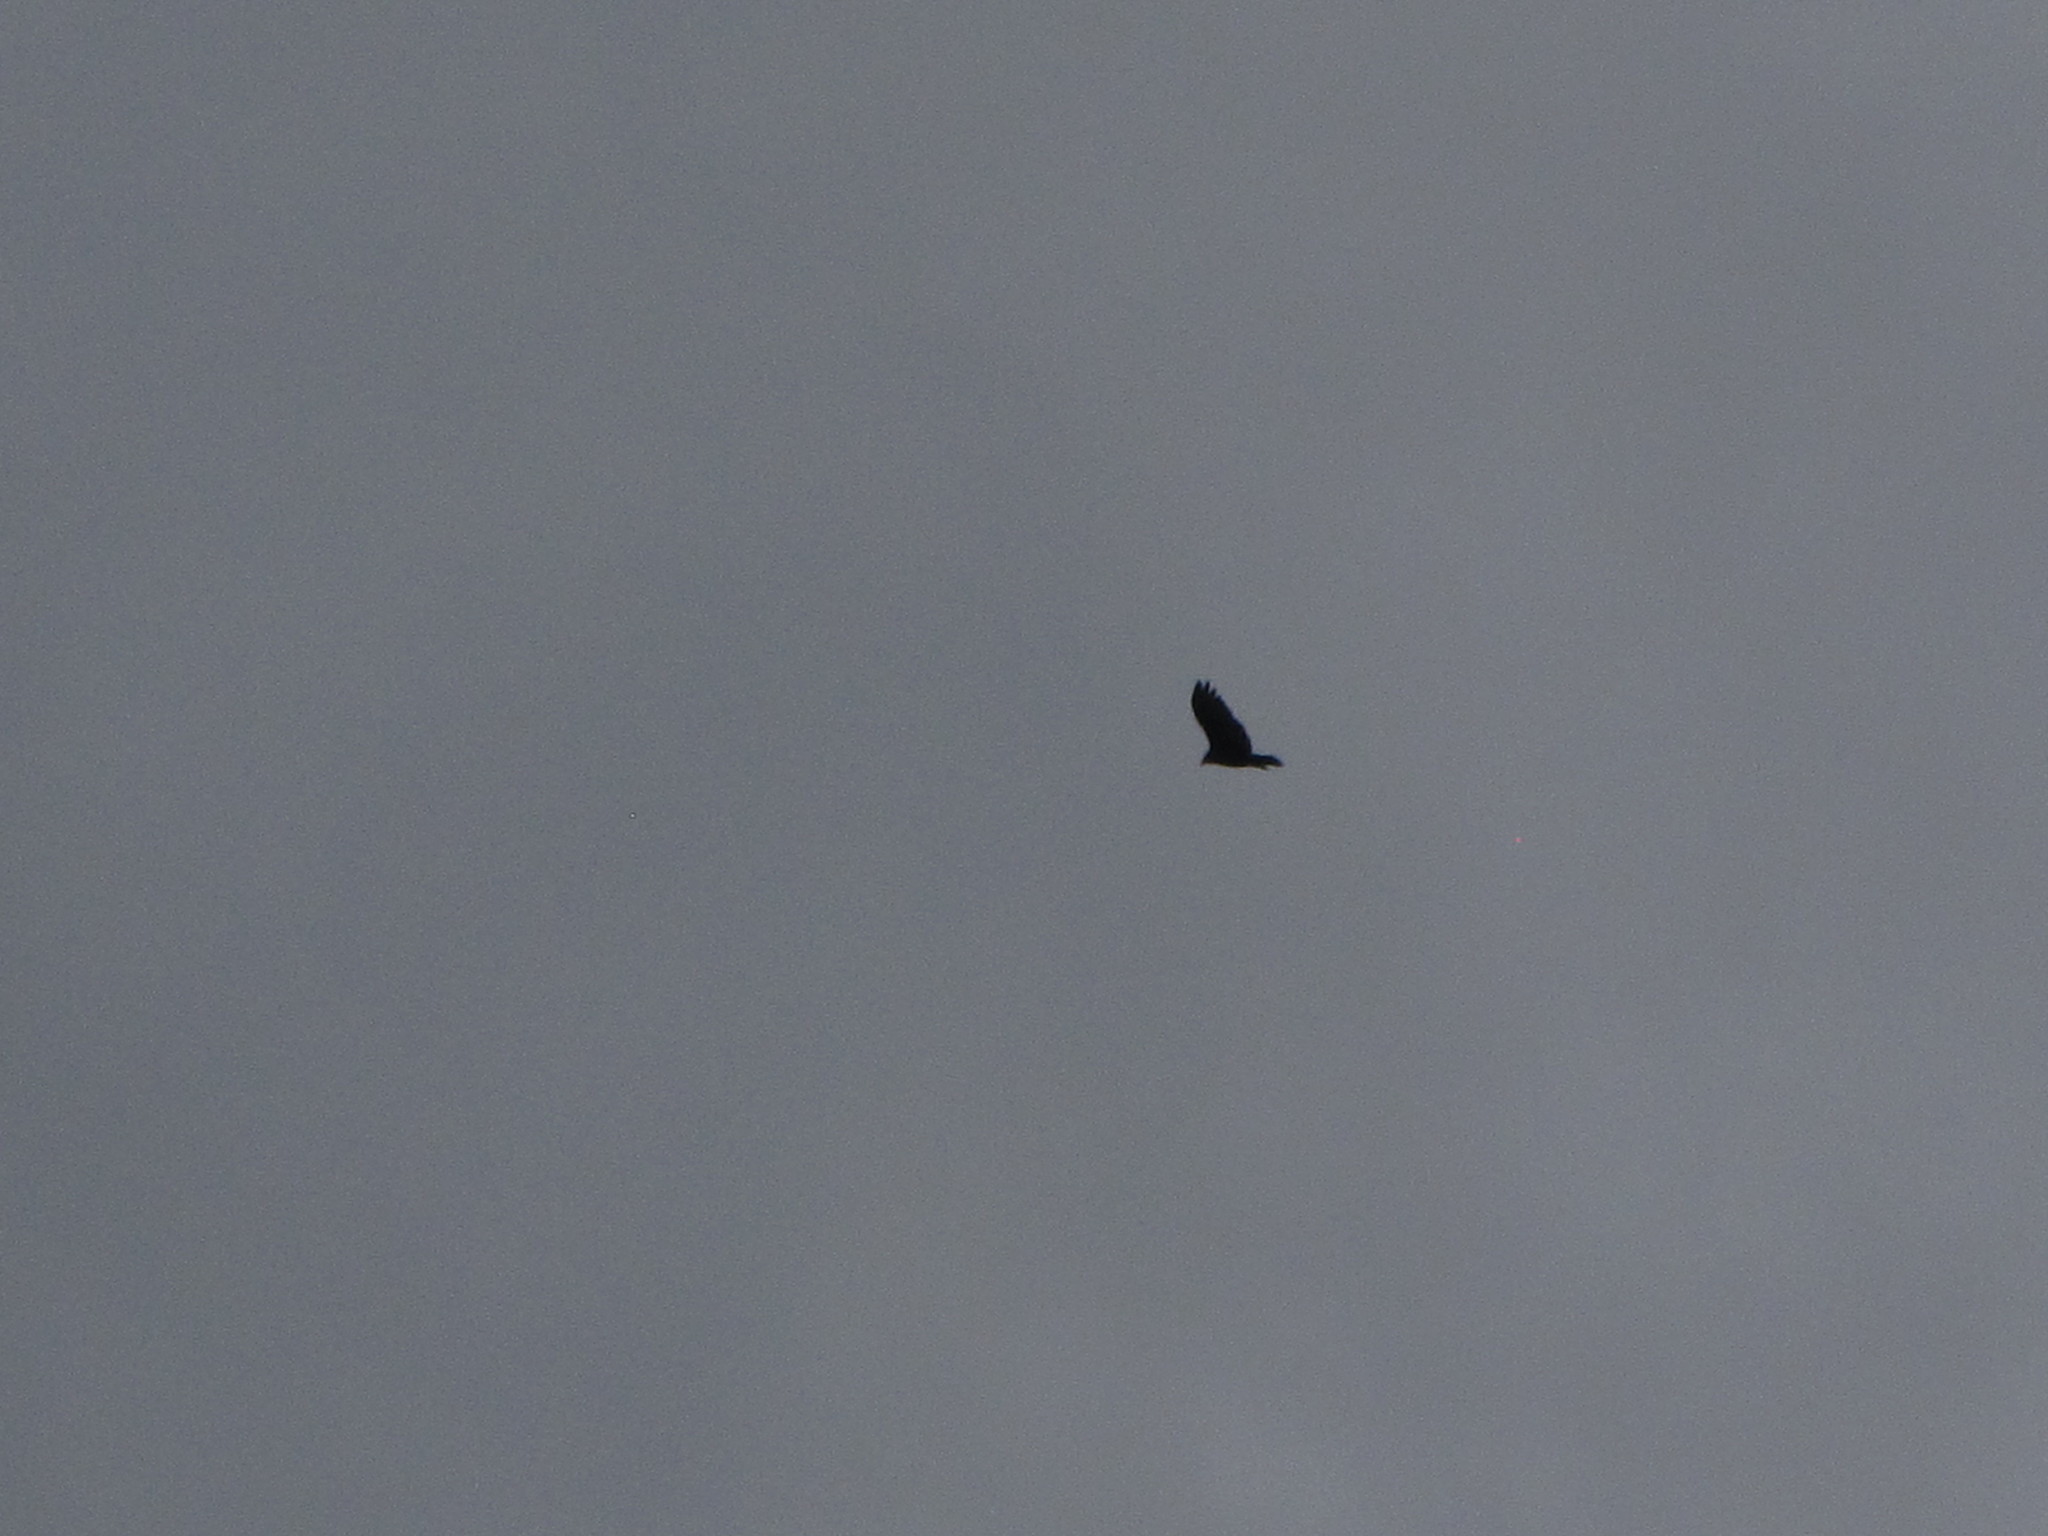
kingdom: Animalia
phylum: Chordata
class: Aves
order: Accipitriformes
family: Cathartidae
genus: Cathartes
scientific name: Cathartes aura
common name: Turkey vulture
